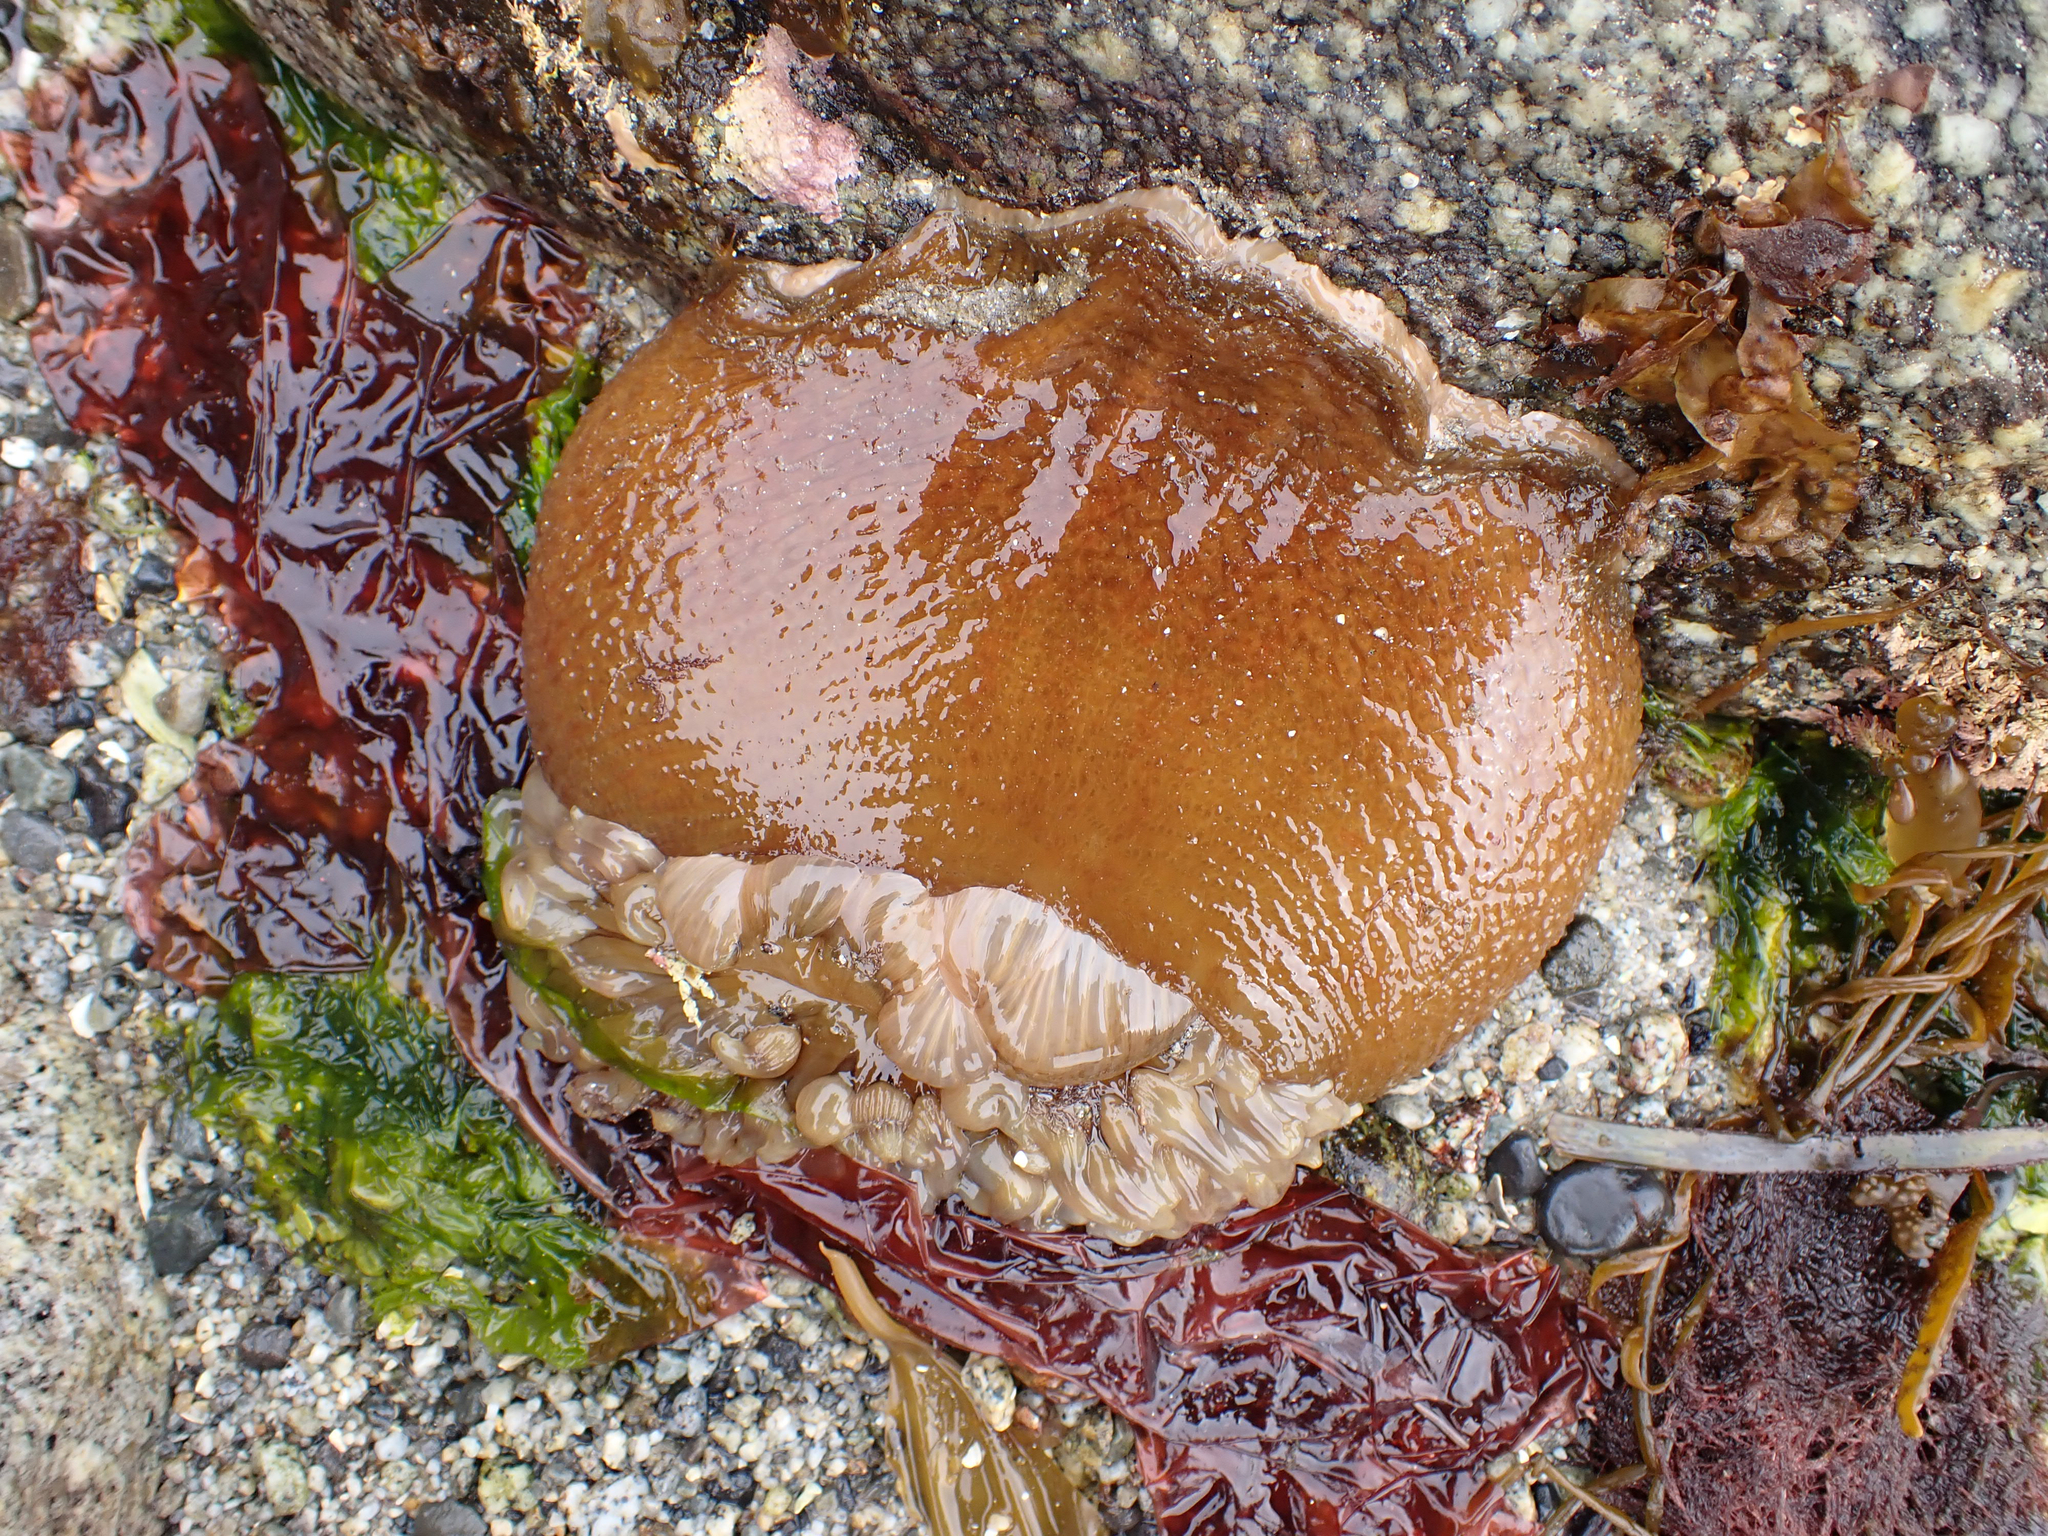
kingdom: Animalia
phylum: Cnidaria
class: Anthozoa
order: Actiniaria
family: Actiniidae
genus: Urticina
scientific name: Urticina grebelnyi
